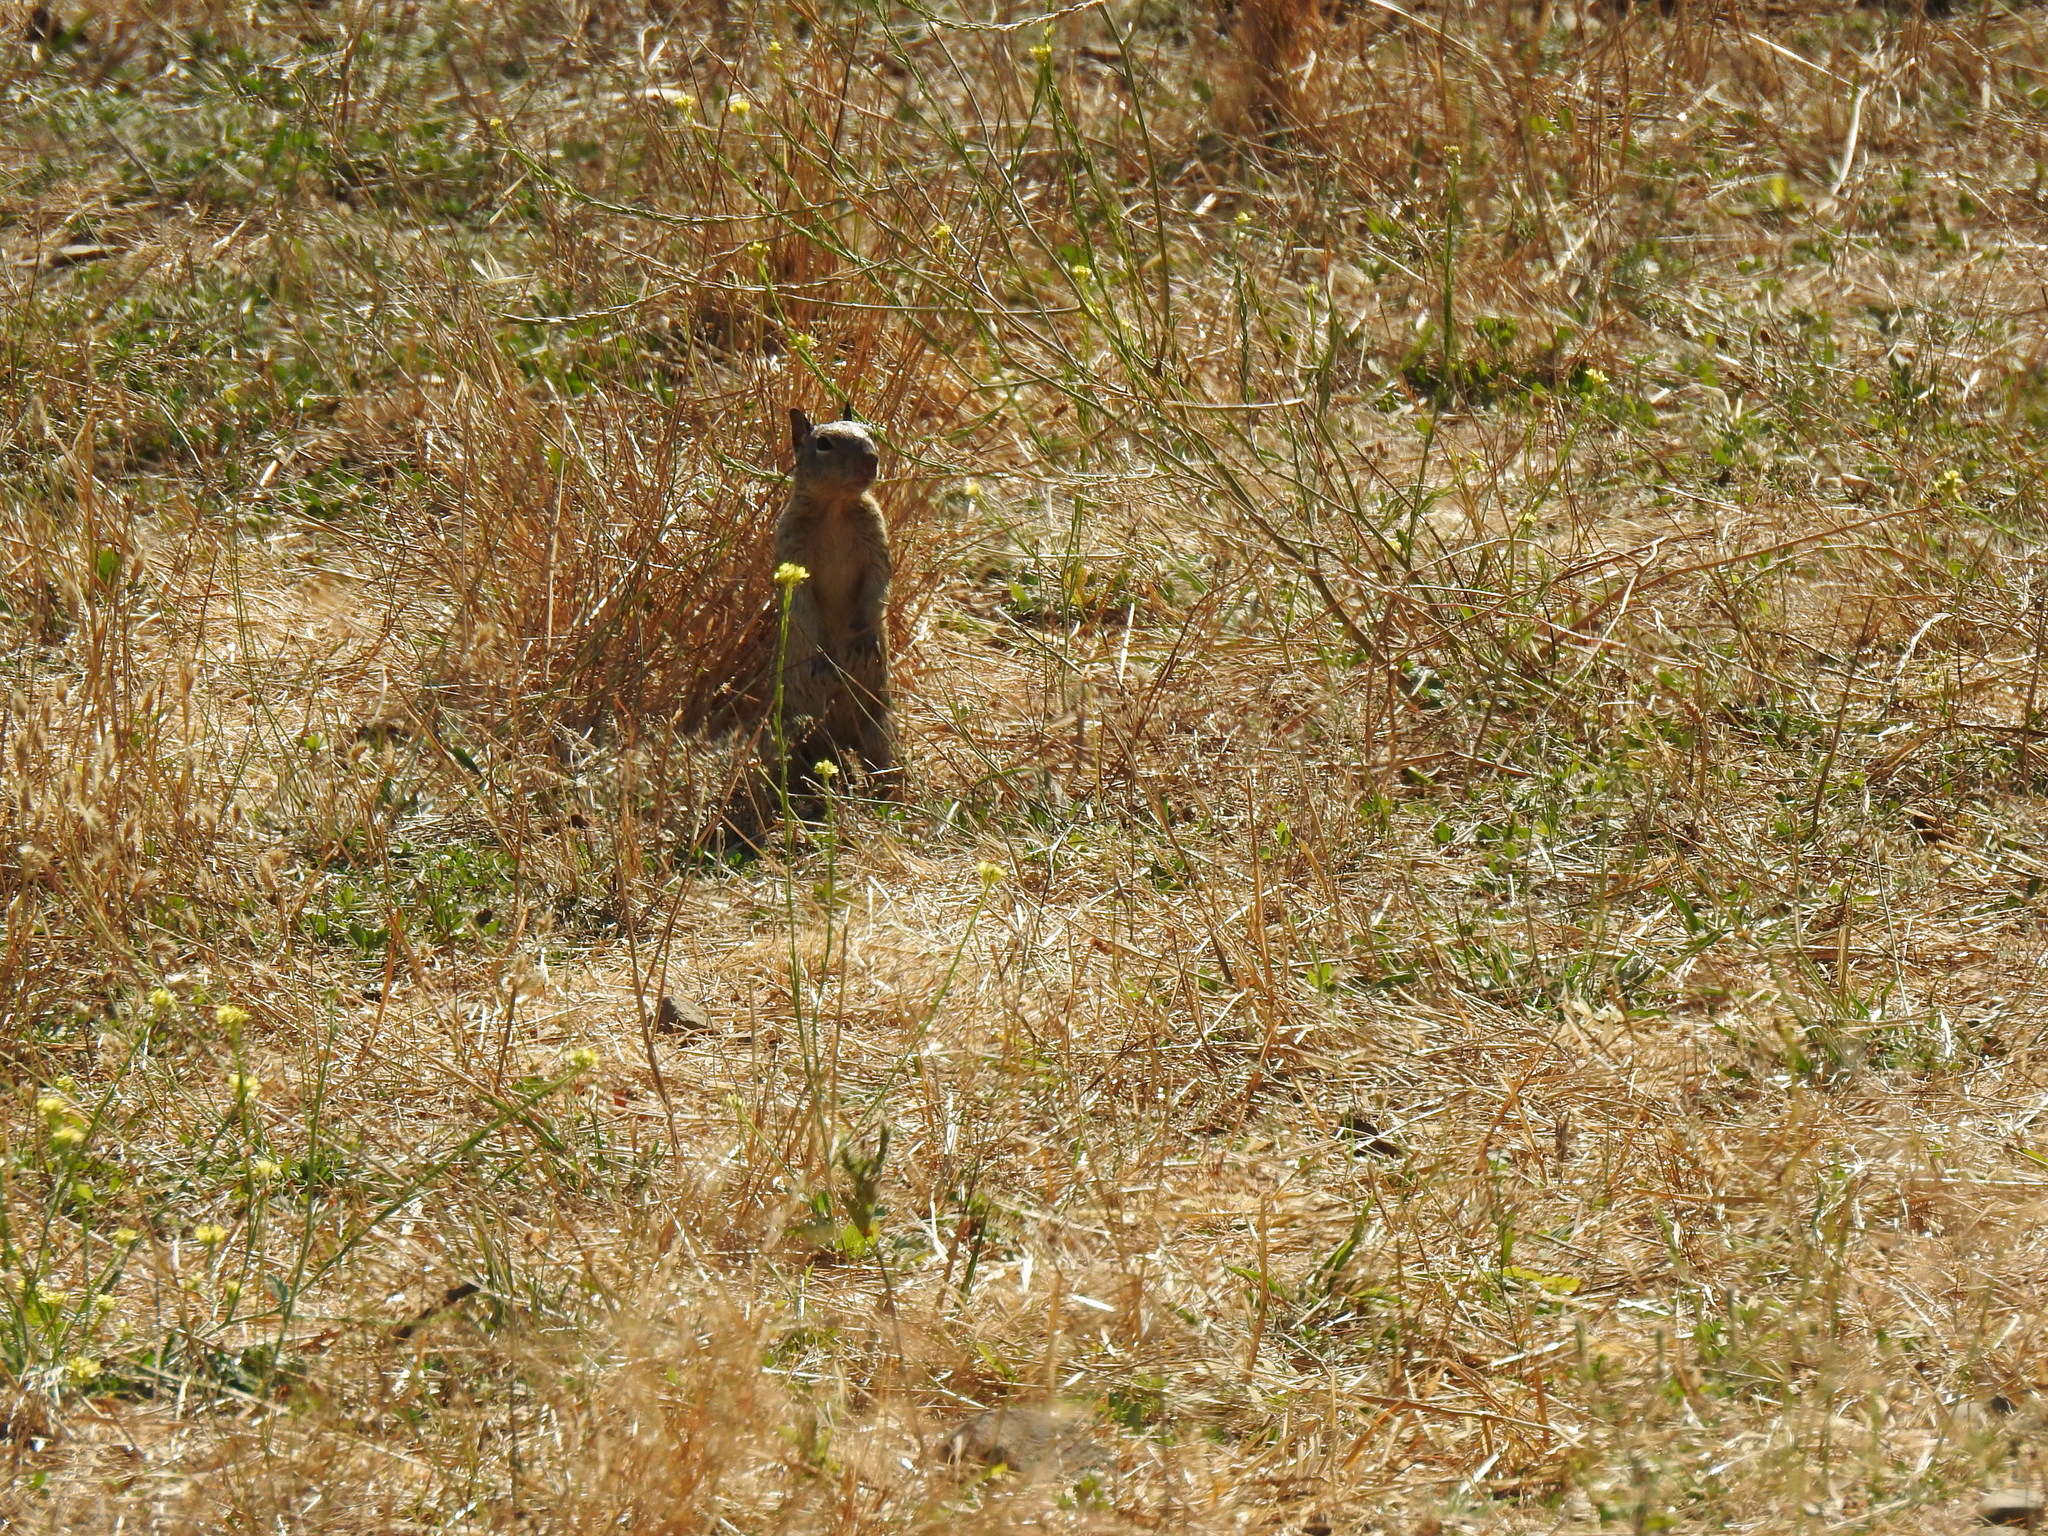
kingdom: Animalia
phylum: Chordata
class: Mammalia
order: Rodentia
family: Sciuridae
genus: Otospermophilus
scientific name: Otospermophilus beecheyi
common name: California ground squirrel
